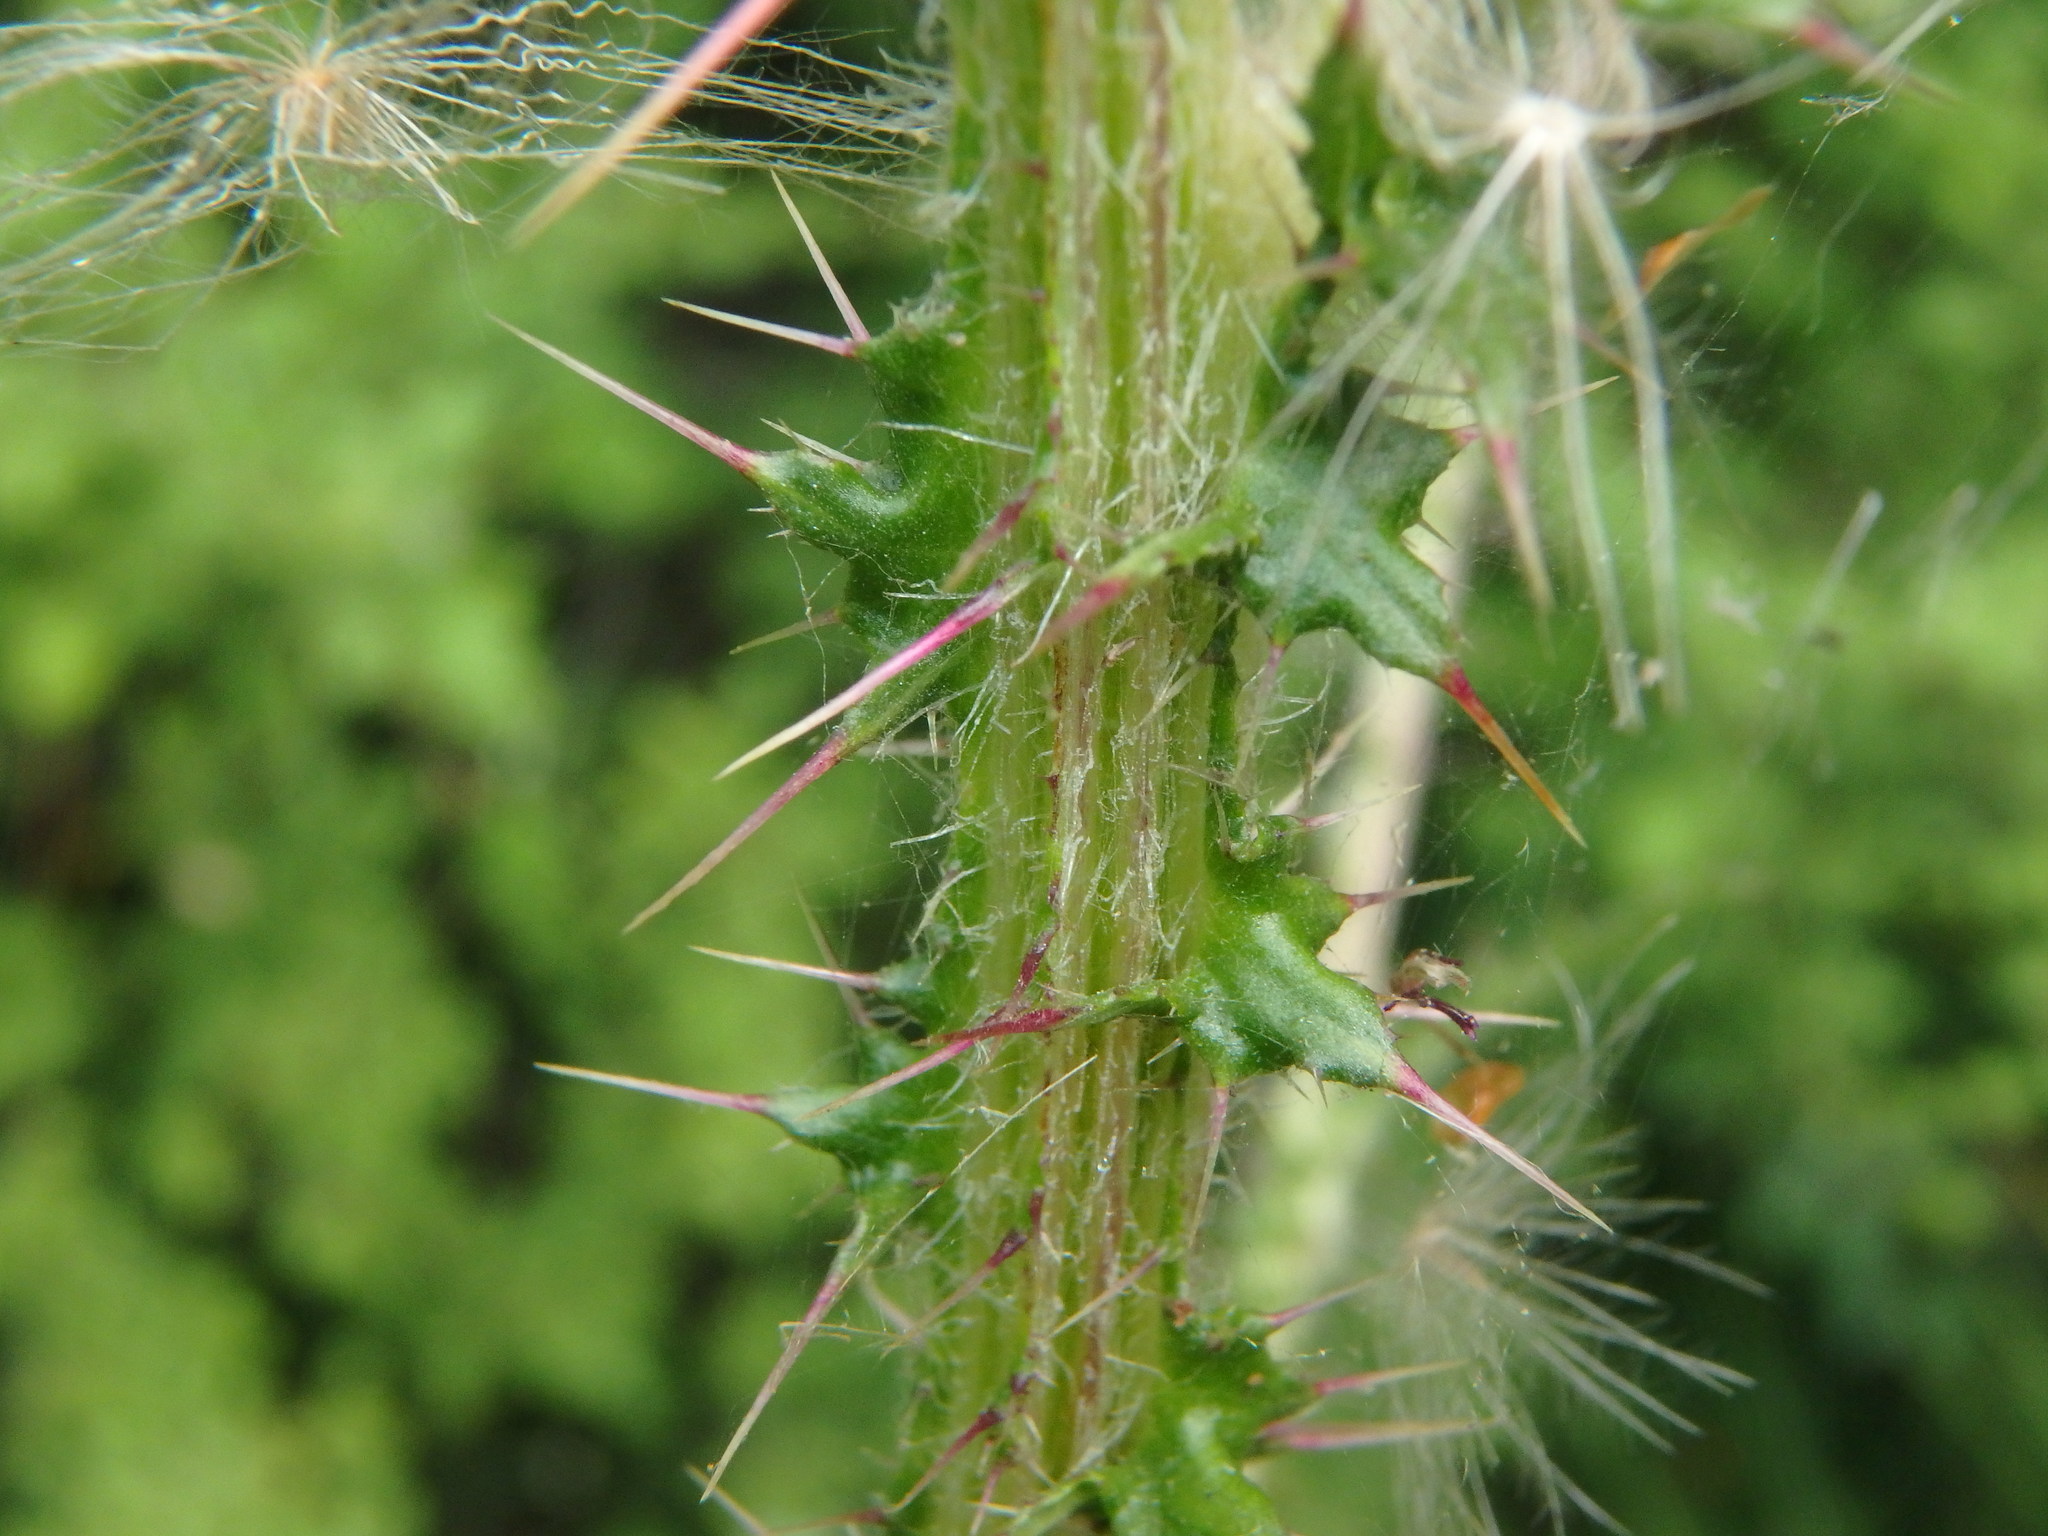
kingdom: Plantae
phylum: Tracheophyta
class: Magnoliopsida
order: Asterales
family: Asteraceae
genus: Cirsium
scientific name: Cirsium palustre
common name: Marsh thistle
